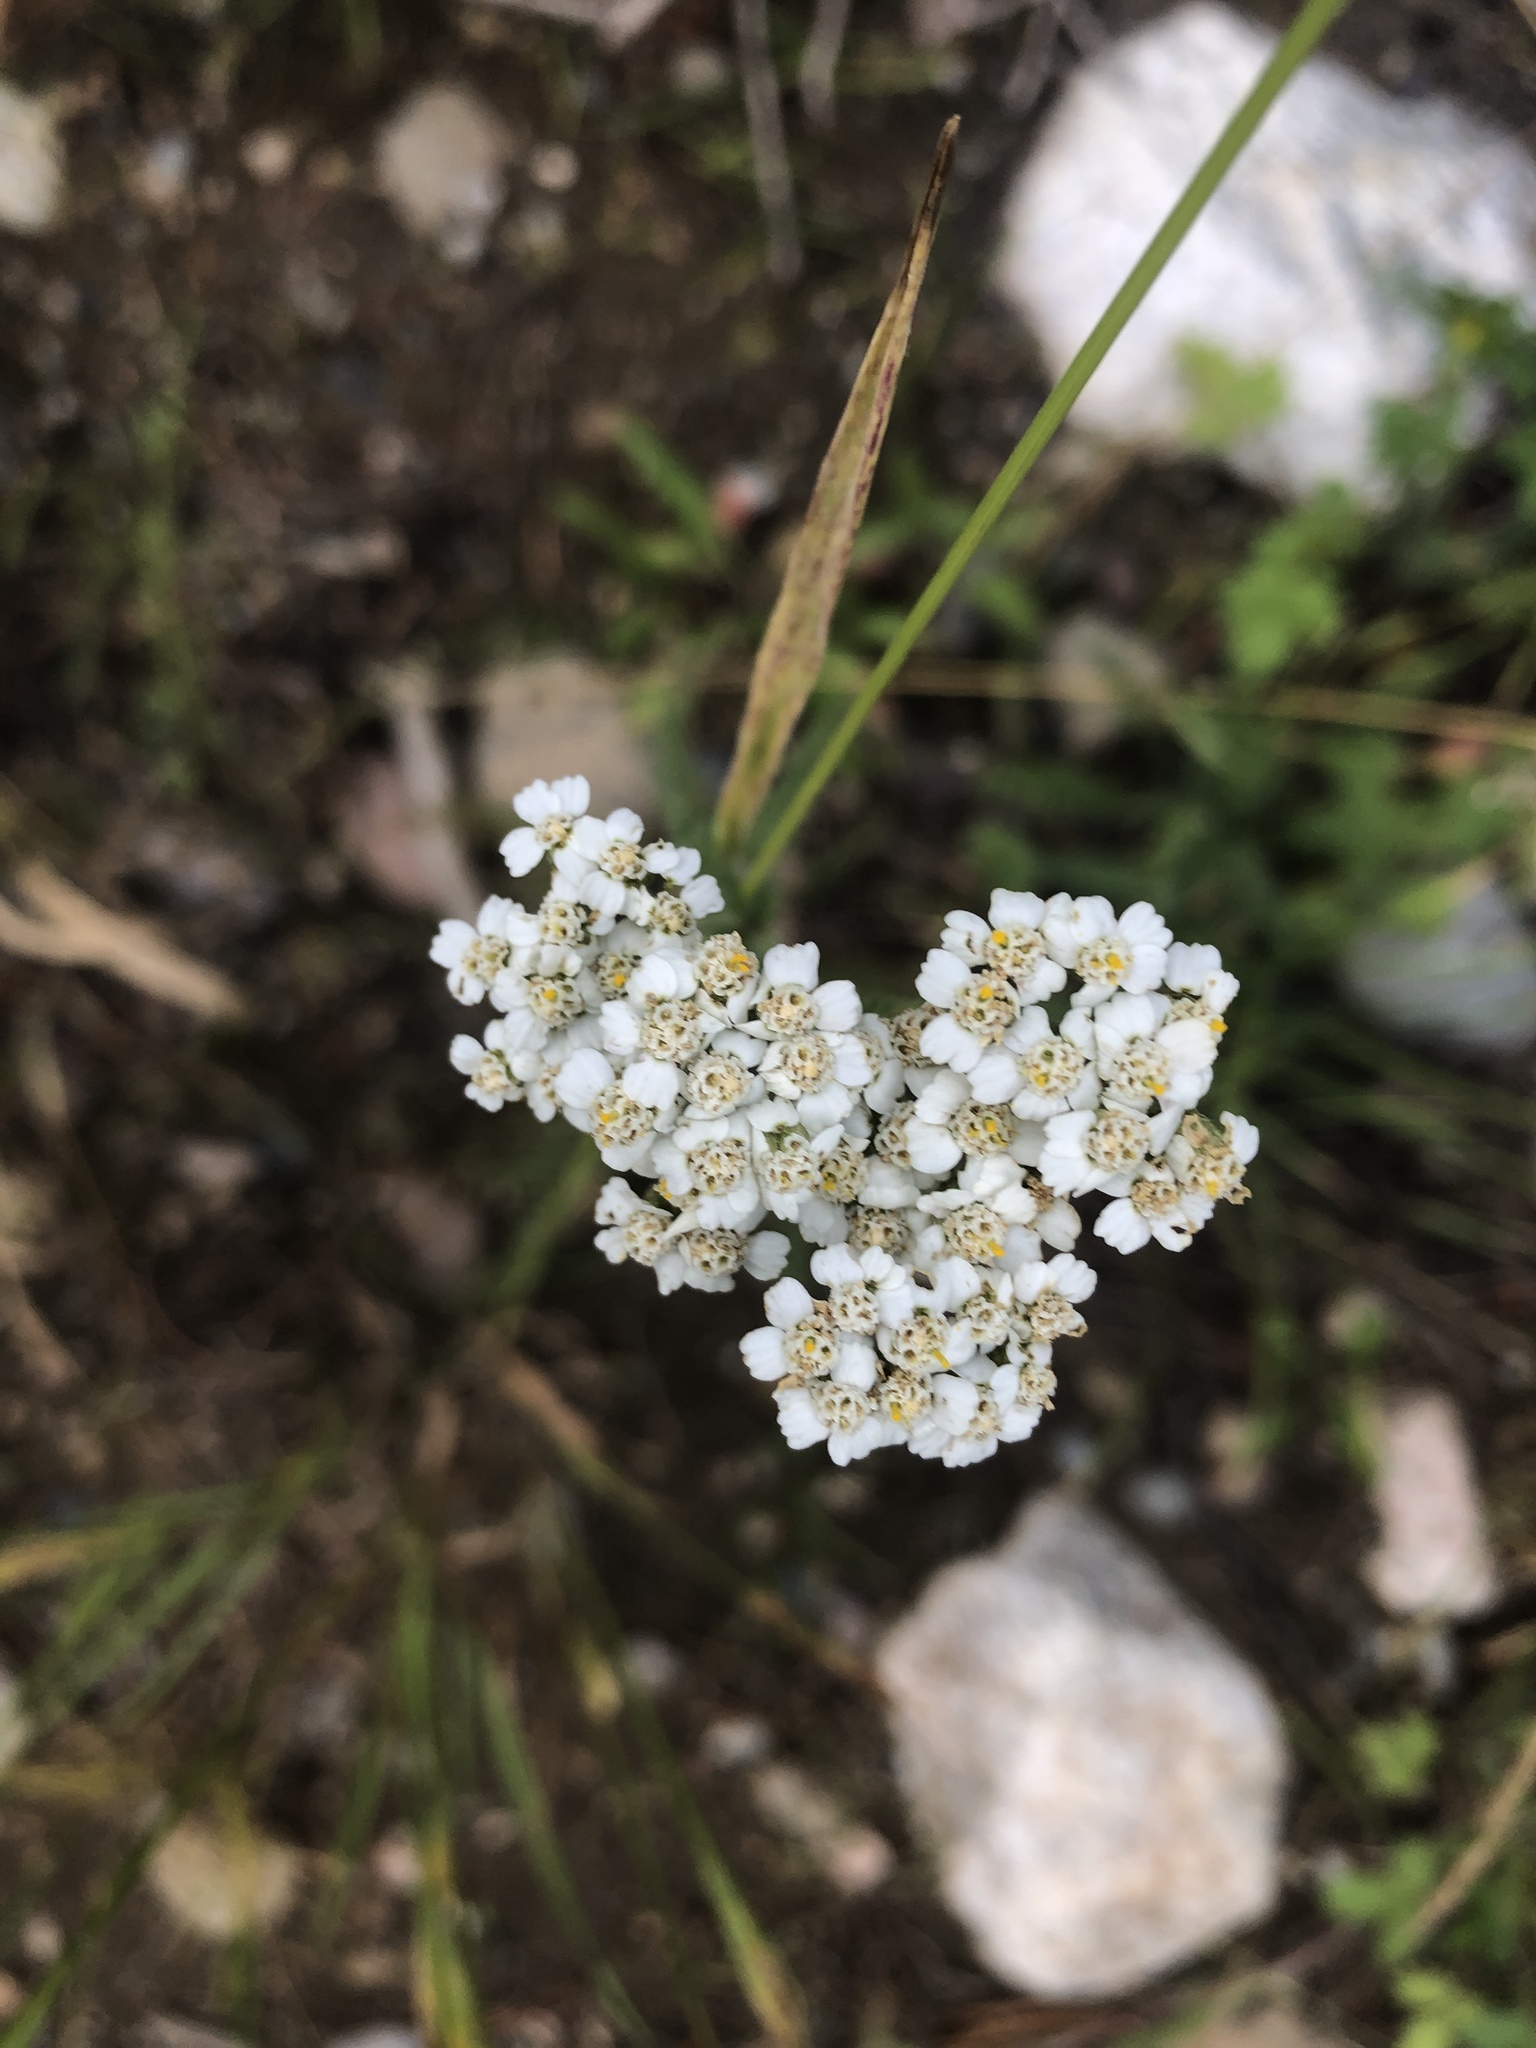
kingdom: Plantae
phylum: Tracheophyta
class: Magnoliopsida
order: Asterales
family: Asteraceae
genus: Achillea
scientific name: Achillea millefolium
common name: Yarrow
